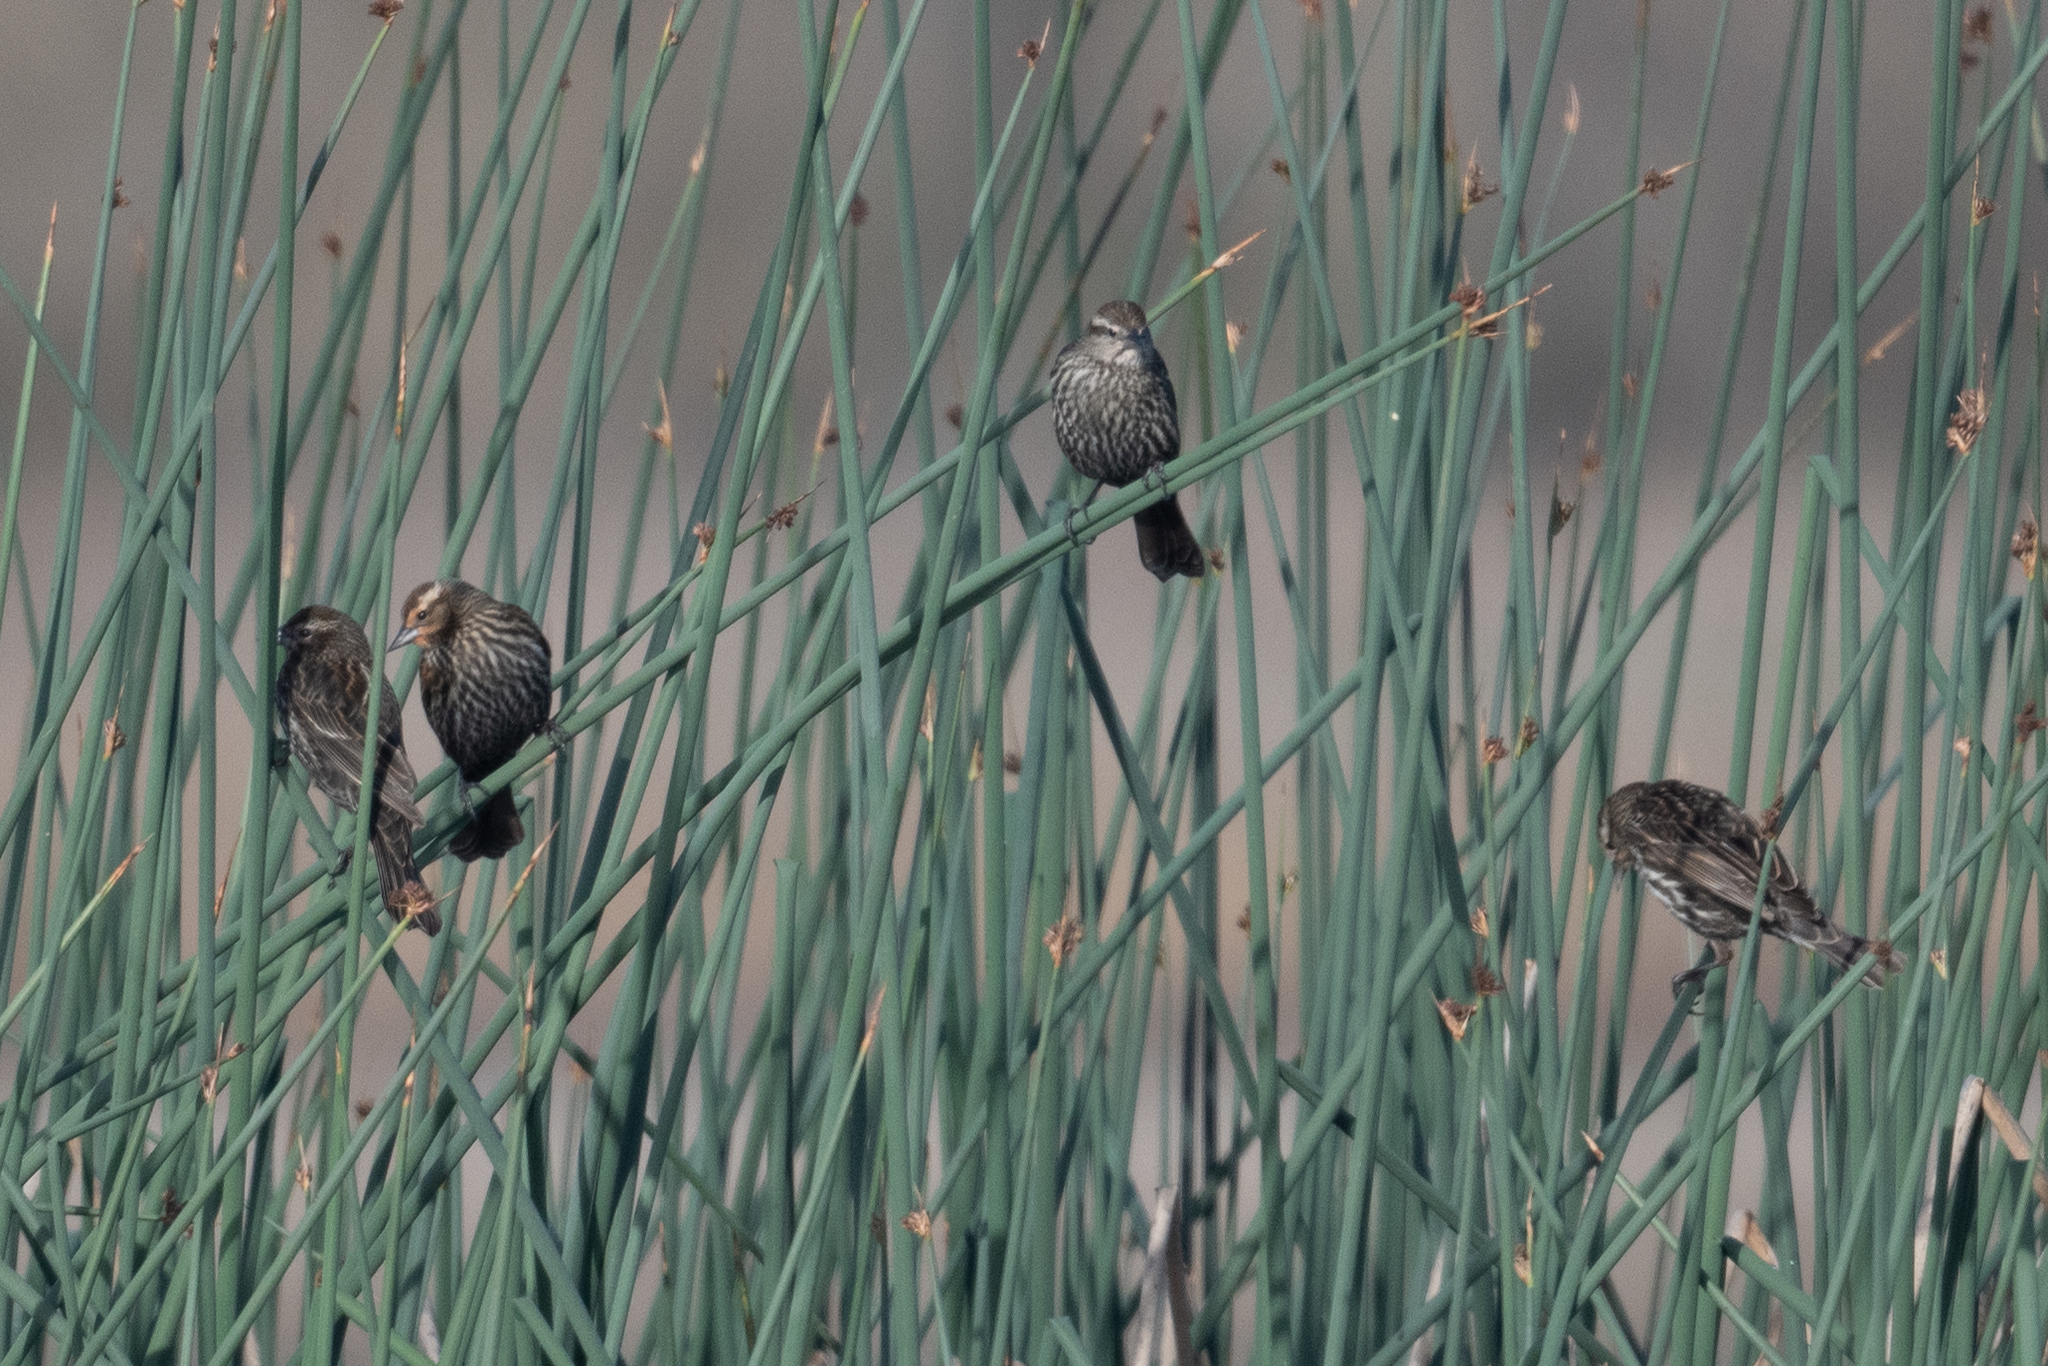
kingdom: Animalia
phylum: Chordata
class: Aves
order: Passeriformes
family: Icteridae
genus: Agelaius
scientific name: Agelaius phoeniceus
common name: Red-winged blackbird
